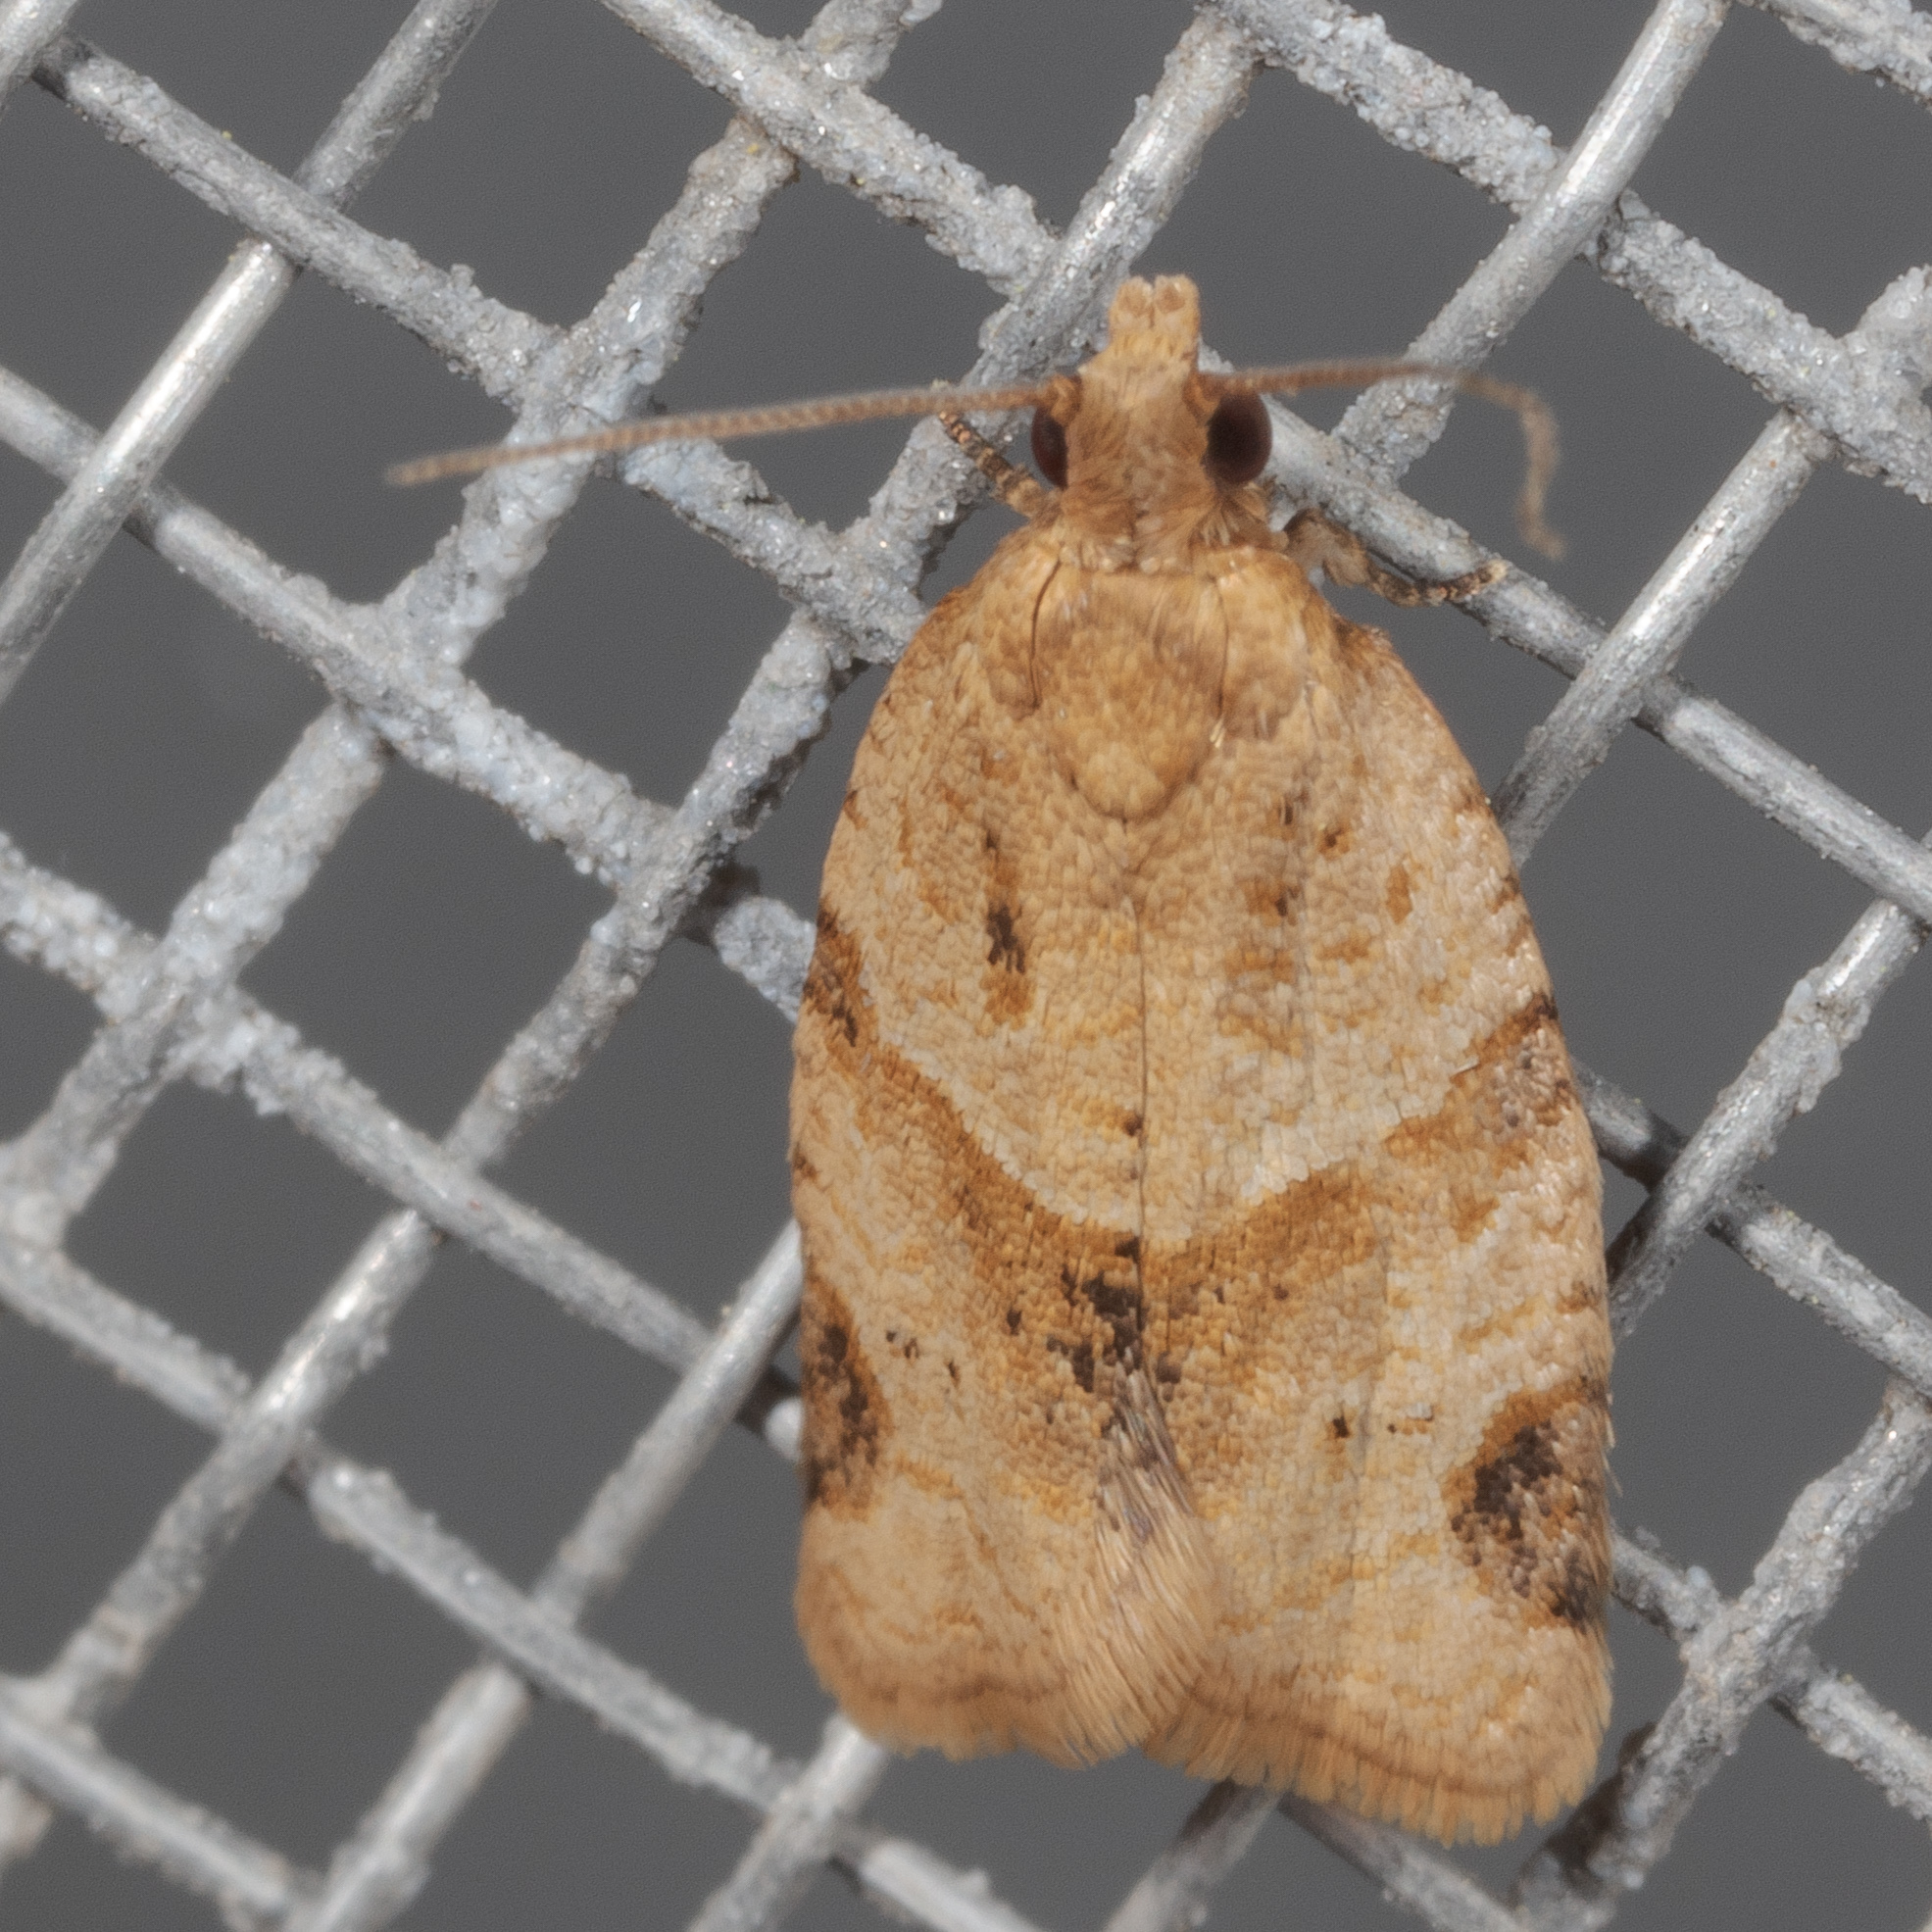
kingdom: Animalia
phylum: Arthropoda
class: Insecta
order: Lepidoptera
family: Tortricidae
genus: Clepsis
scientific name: Clepsis peritana
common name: Garden tortrix
